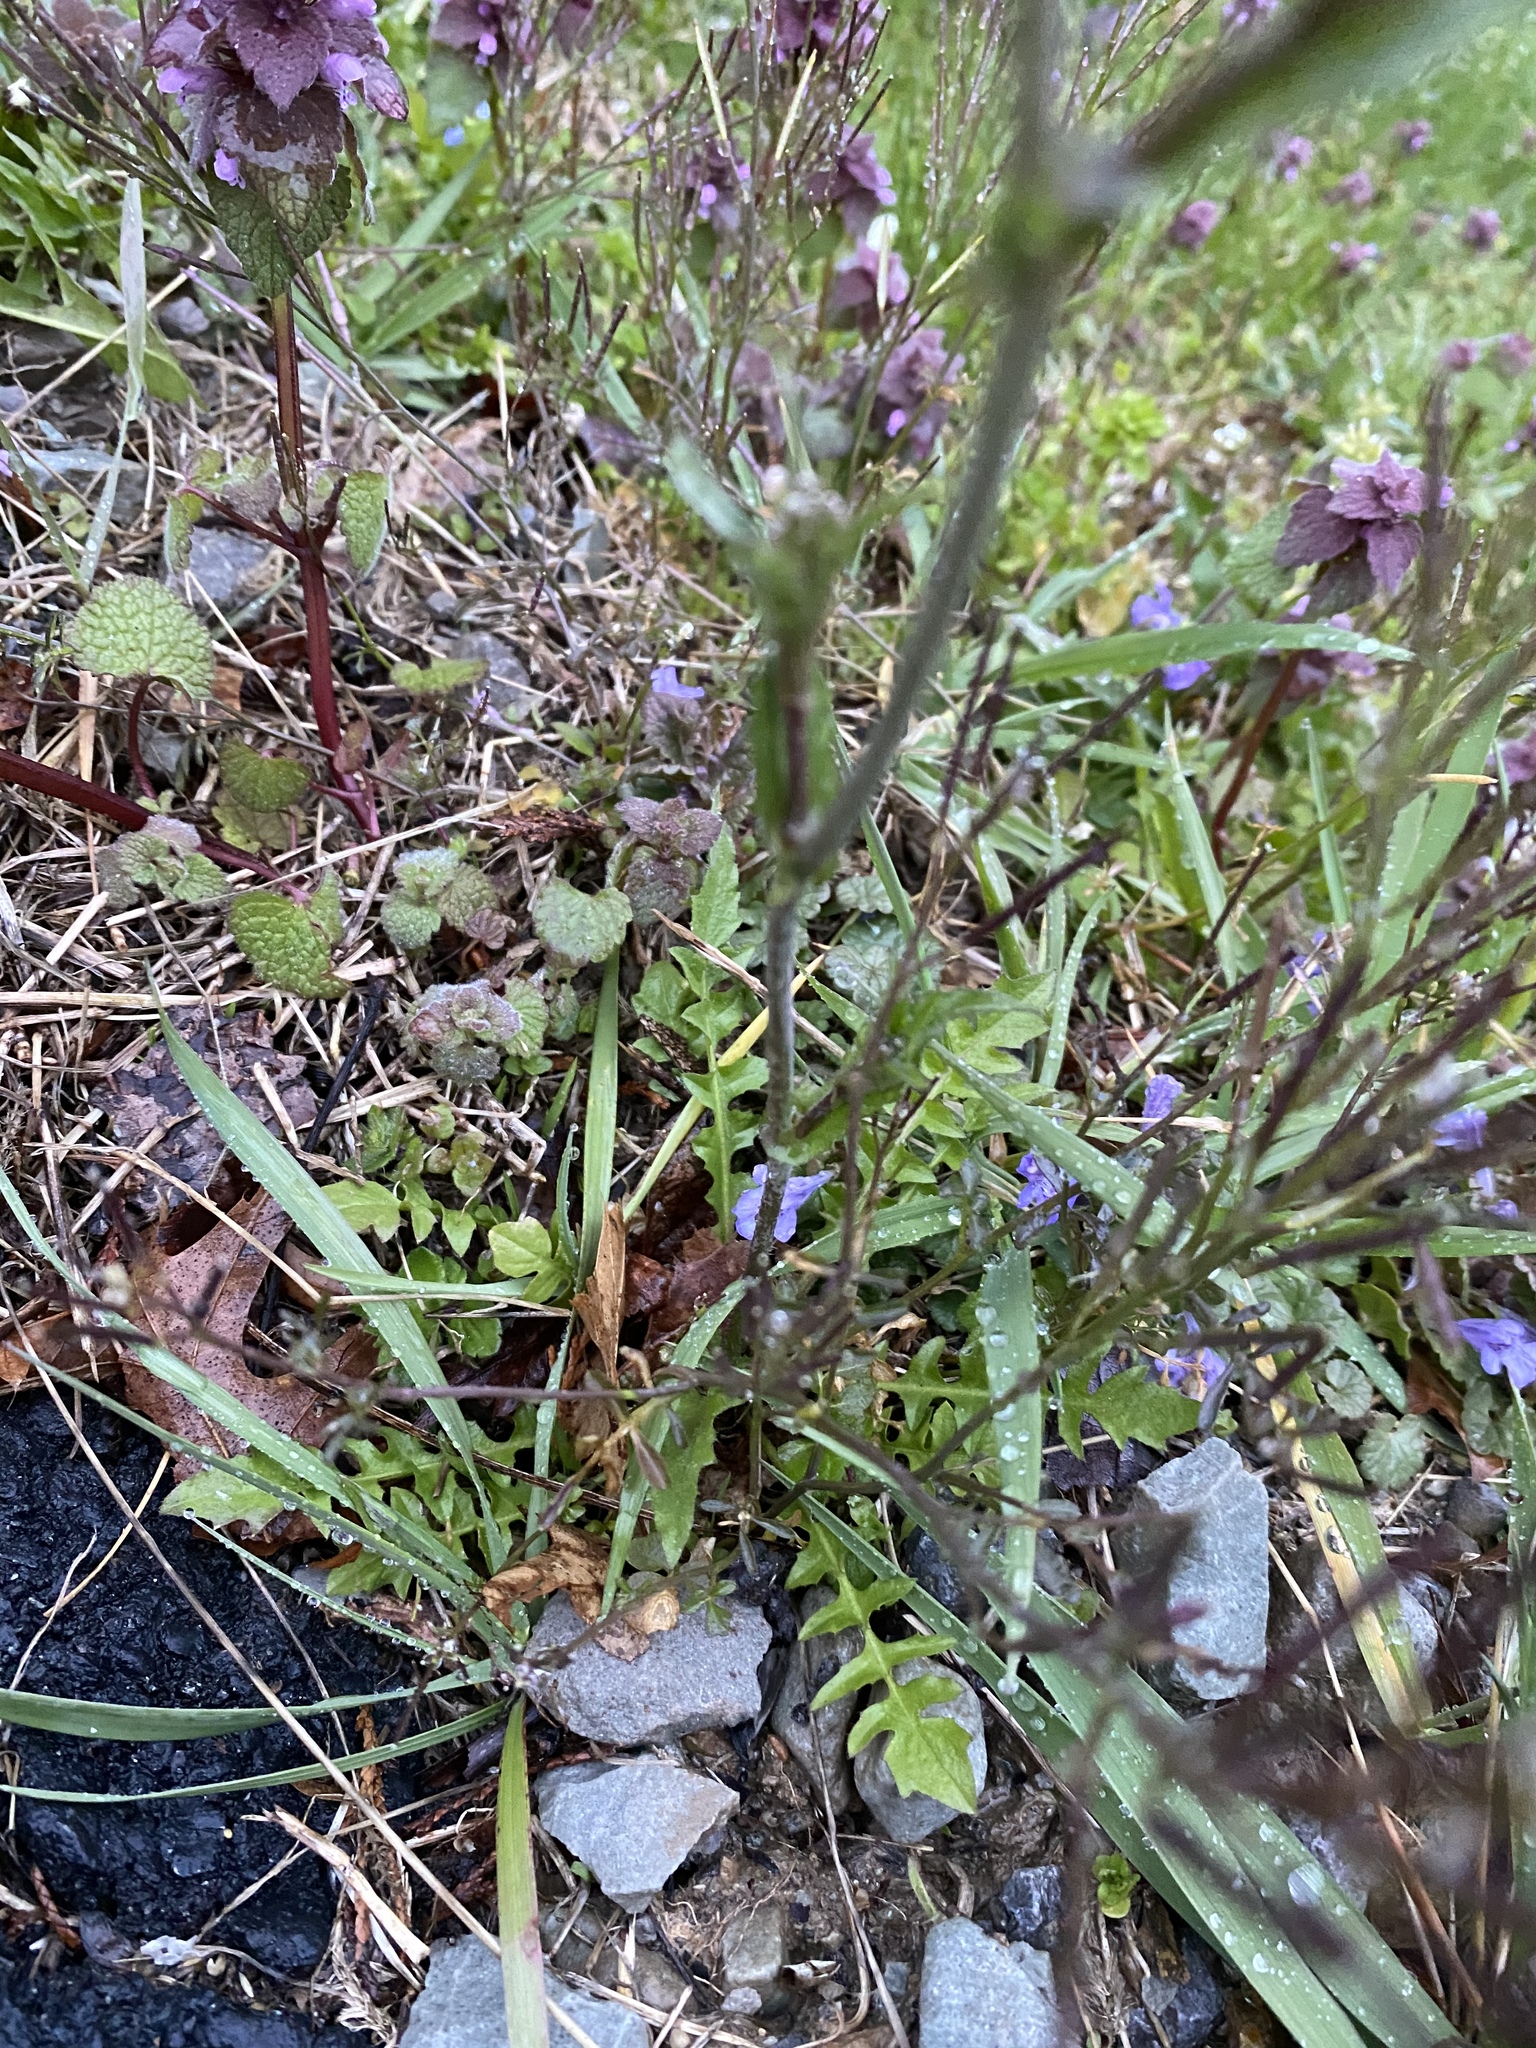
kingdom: Plantae
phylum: Tracheophyta
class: Magnoliopsida
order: Brassicales
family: Brassicaceae
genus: Capsella
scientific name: Capsella bursa-pastoris
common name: Shepherd's purse
